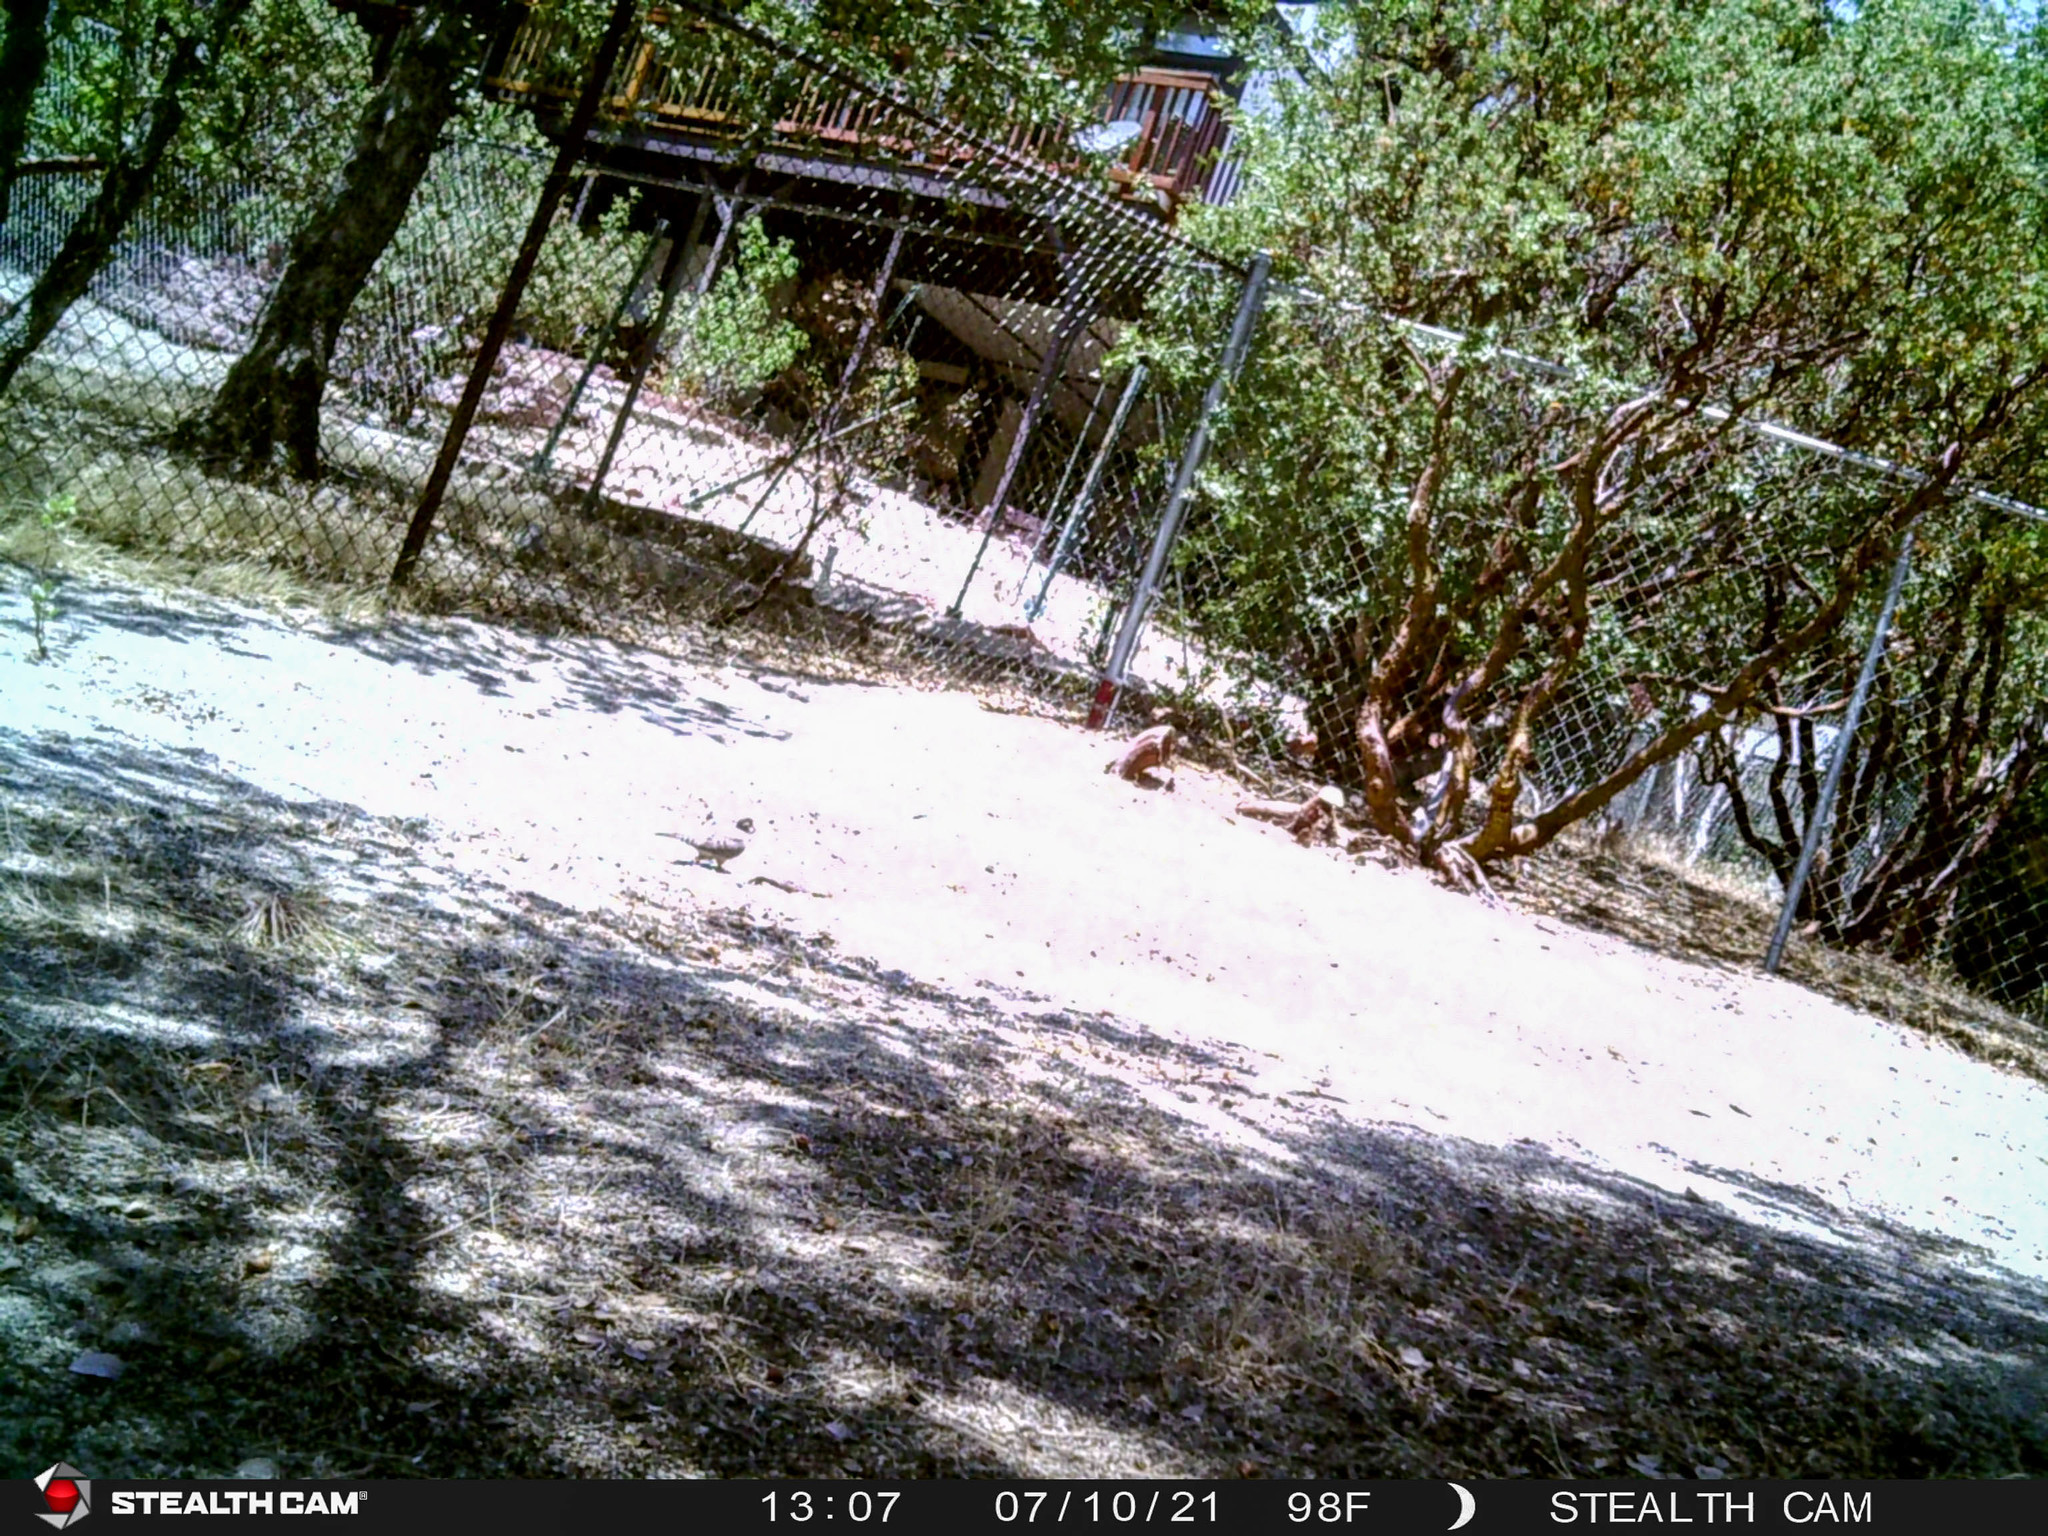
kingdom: Animalia
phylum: Chordata
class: Aves
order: Columbiformes
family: Columbidae
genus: Zenaida
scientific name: Zenaida macroura
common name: Mourning dove
